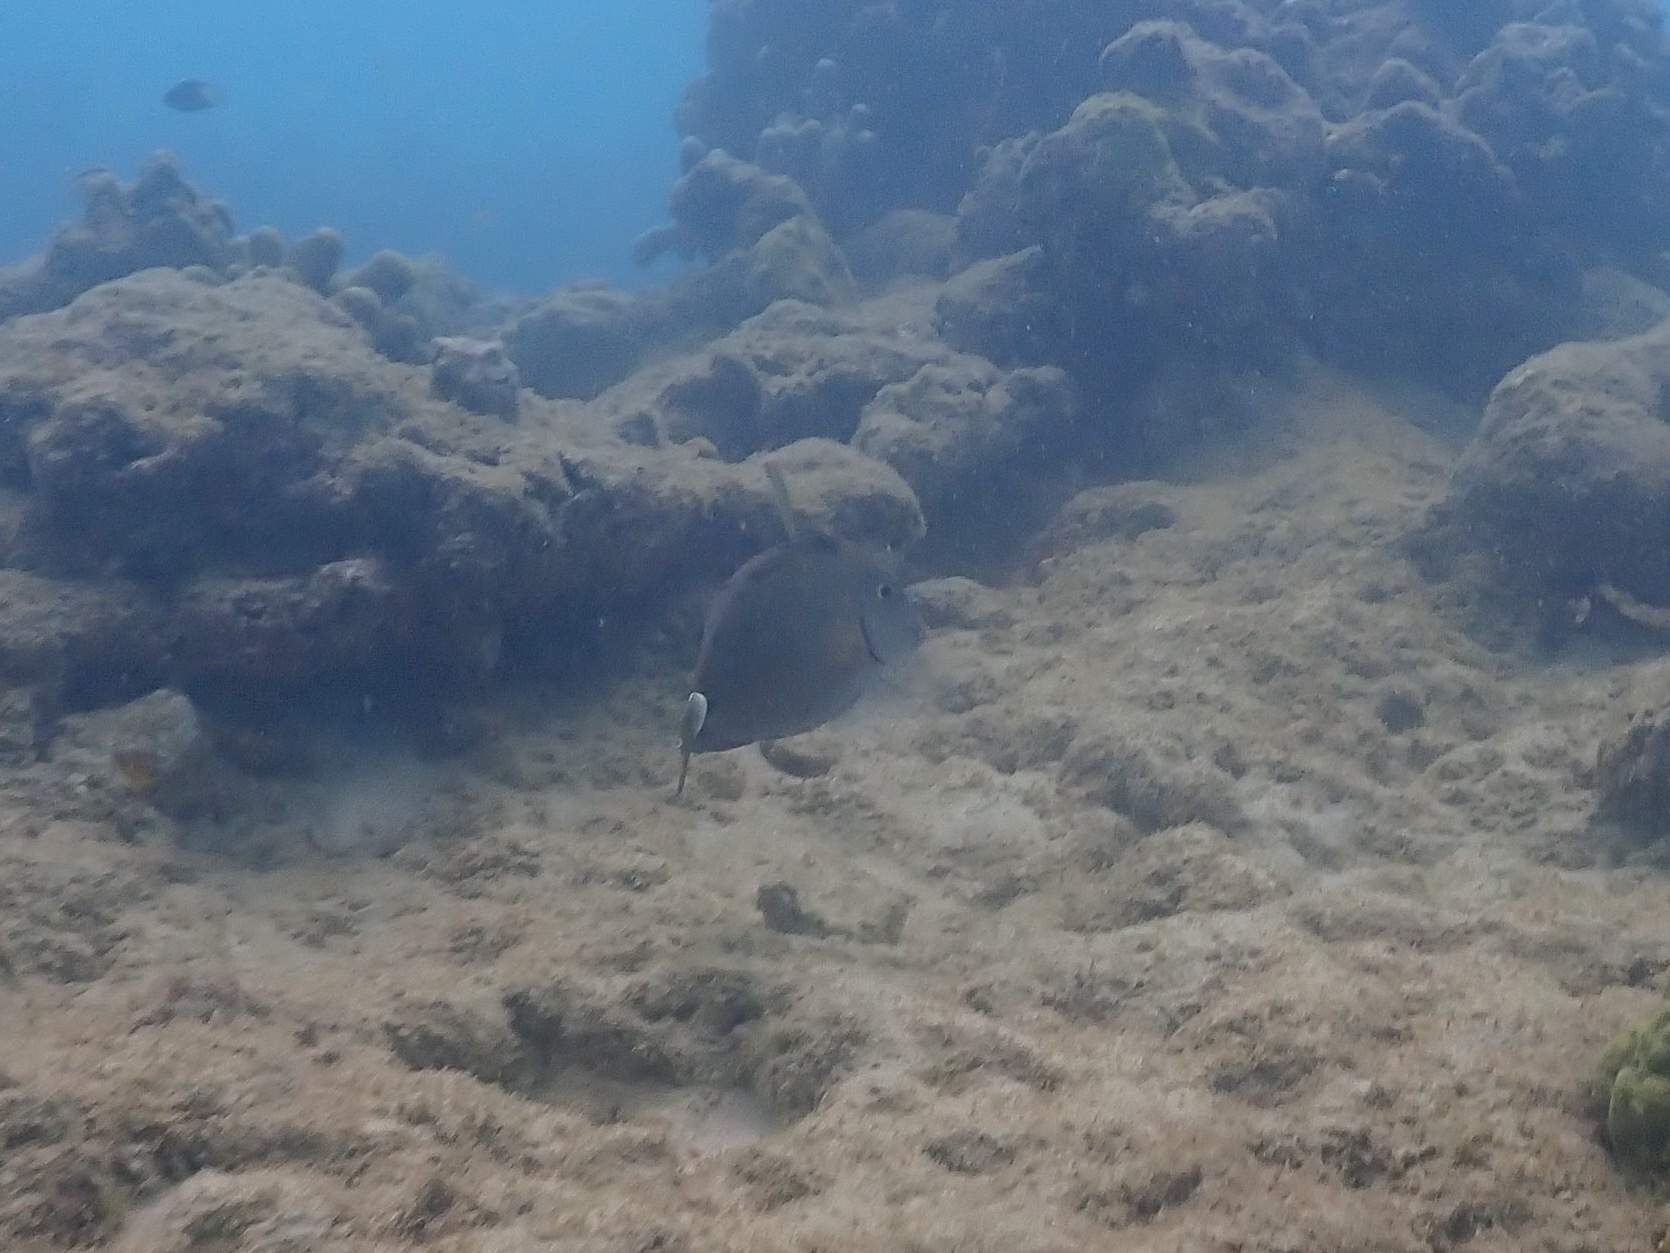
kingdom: Animalia
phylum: Chordata
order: Perciformes
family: Acanthuridae
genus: Acanthurus
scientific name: Acanthurus bahianus
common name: Ocean surgeon
